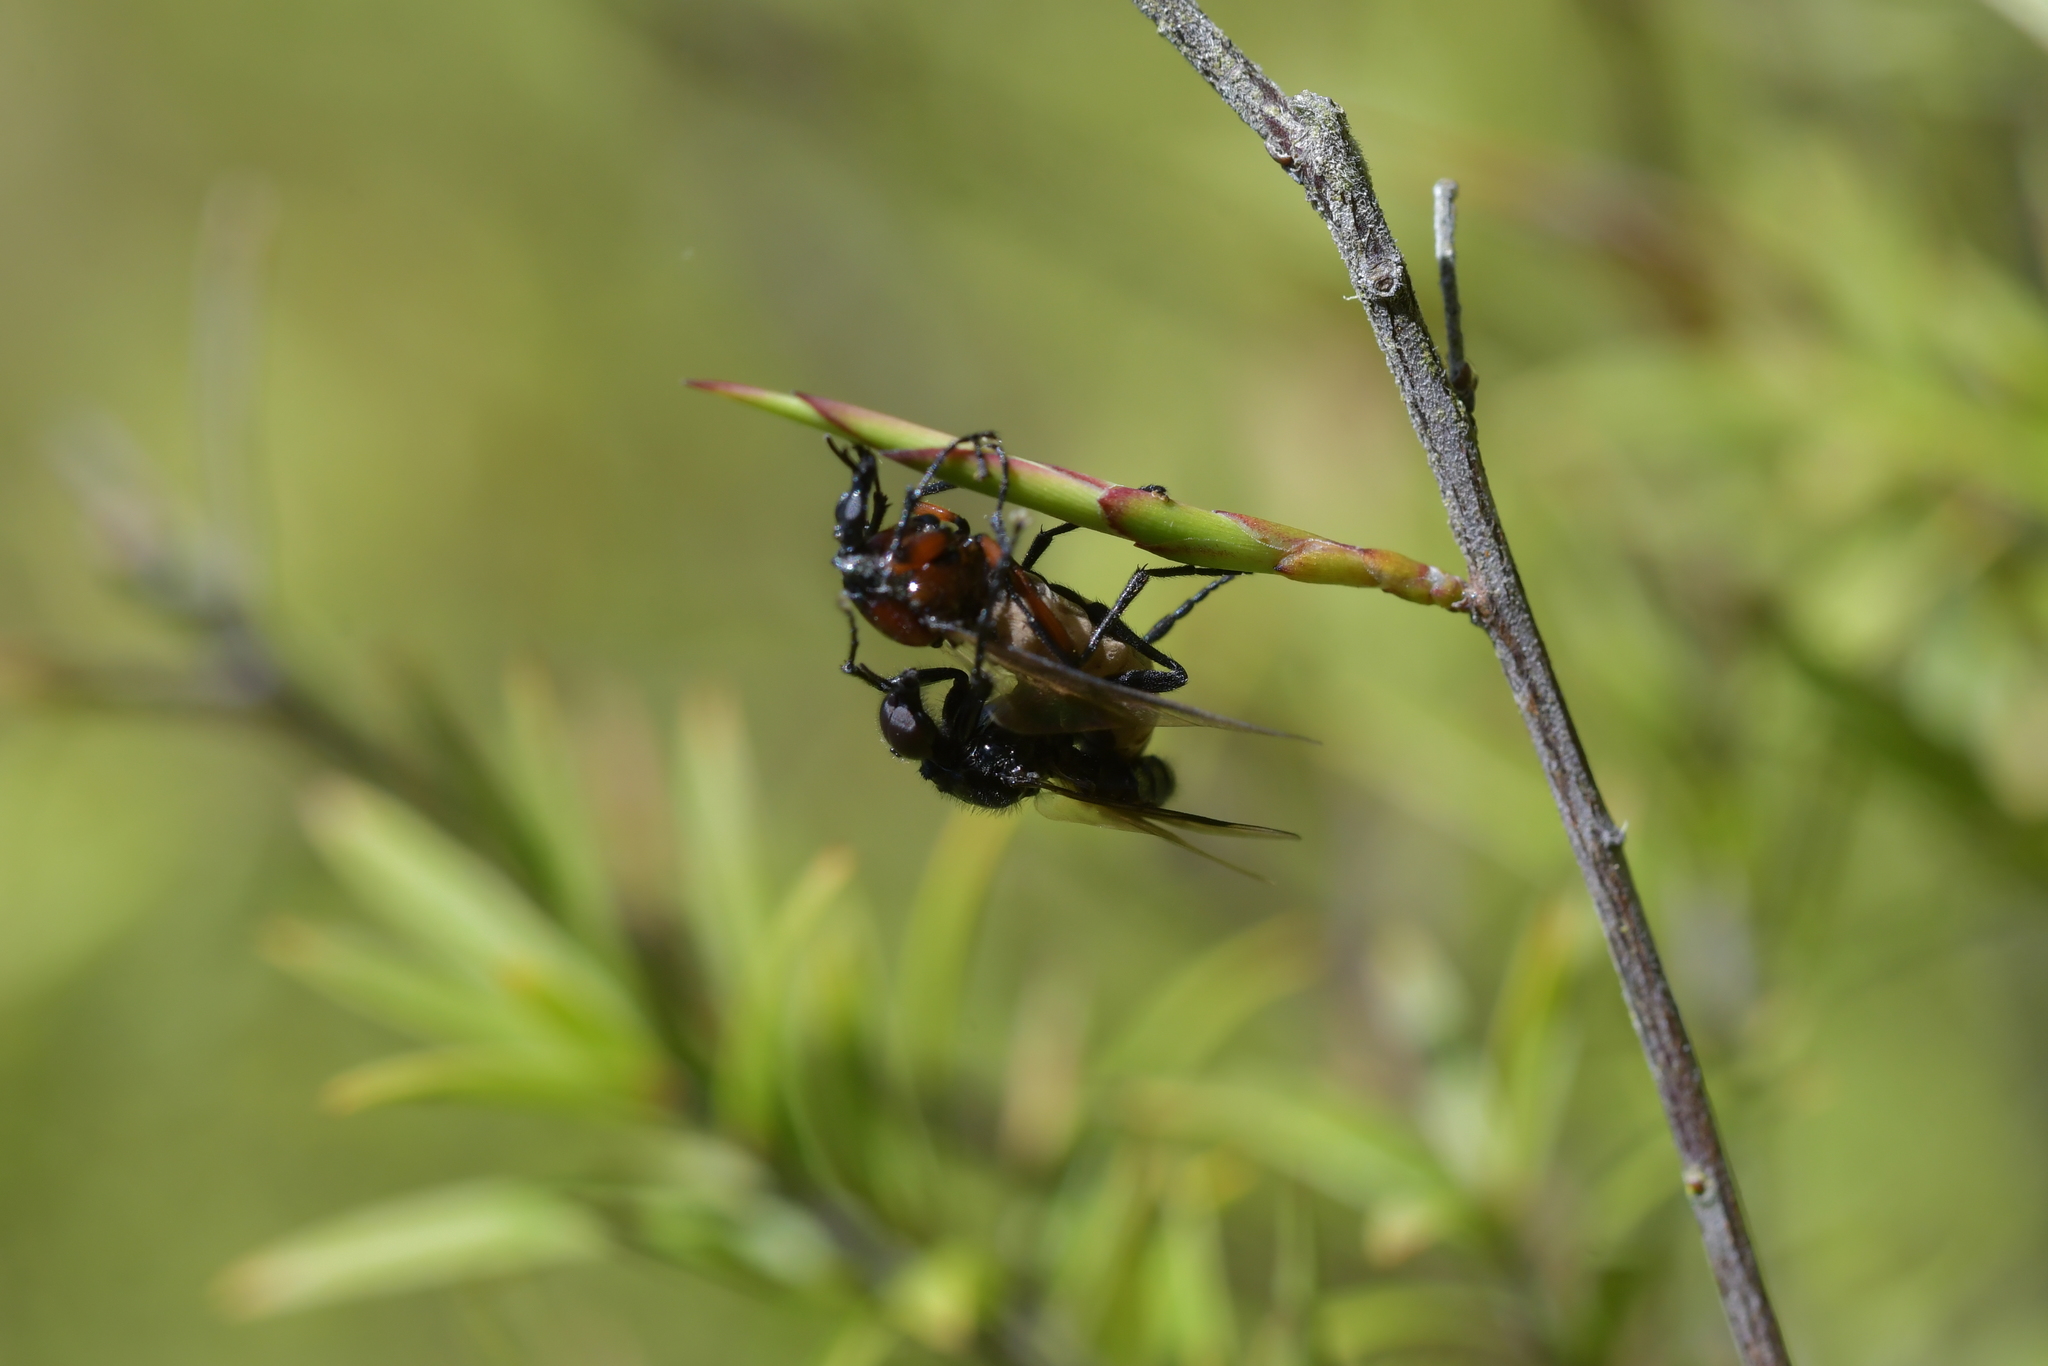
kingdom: Animalia
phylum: Arthropoda
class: Insecta
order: Diptera
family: Bibionidae
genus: Dilophus
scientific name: Dilophus nigrostigma
